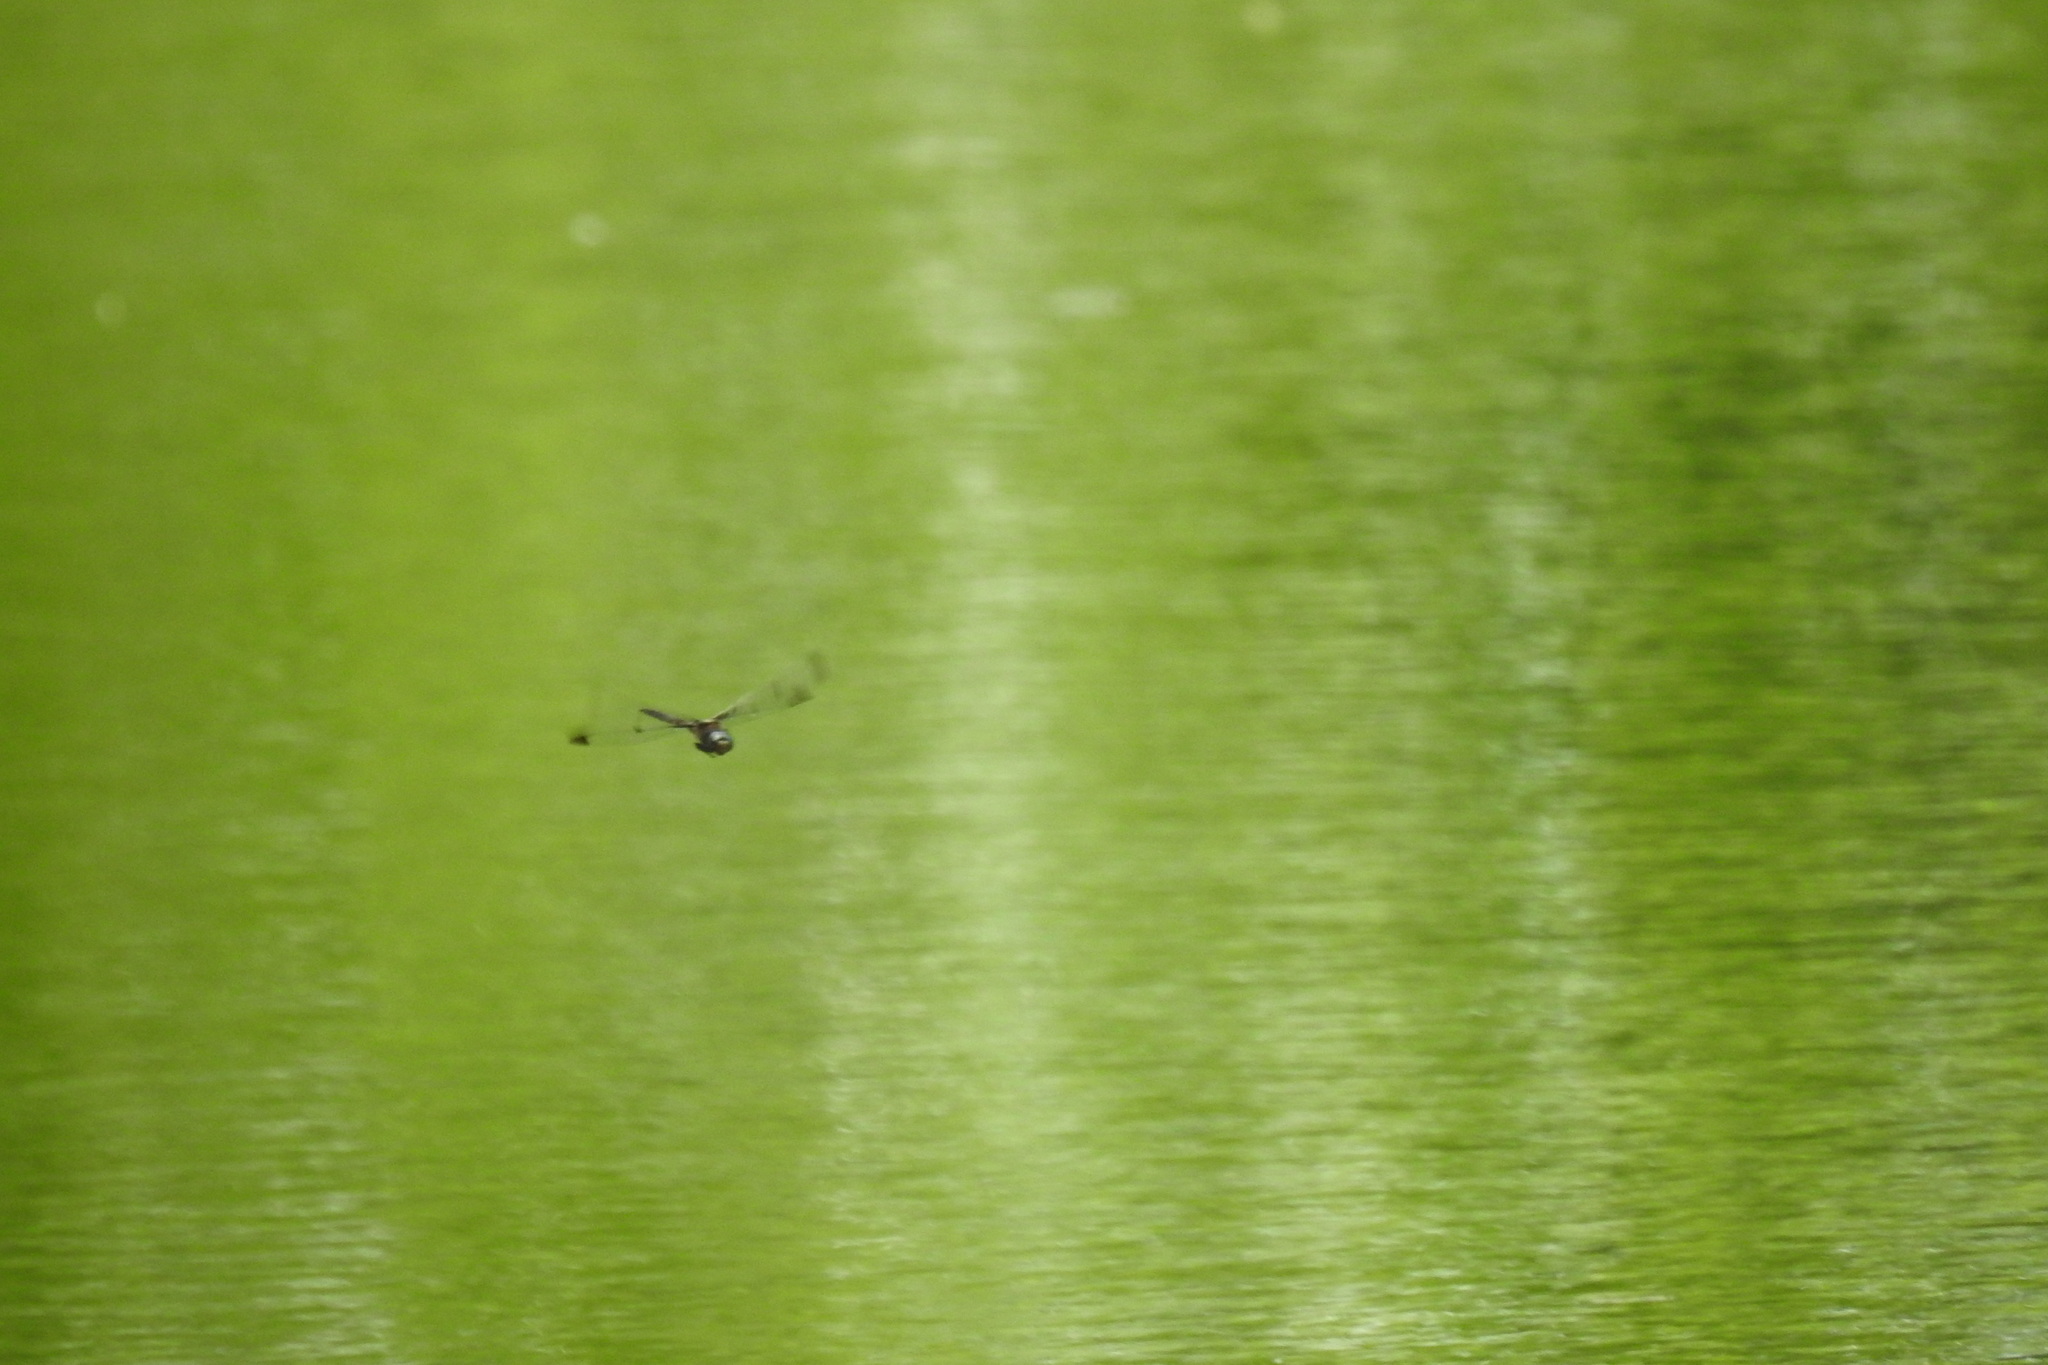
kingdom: Animalia
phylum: Arthropoda
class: Insecta
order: Odonata
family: Corduliidae
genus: Epitheca
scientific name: Epitheca princeps
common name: Prince baskettail
